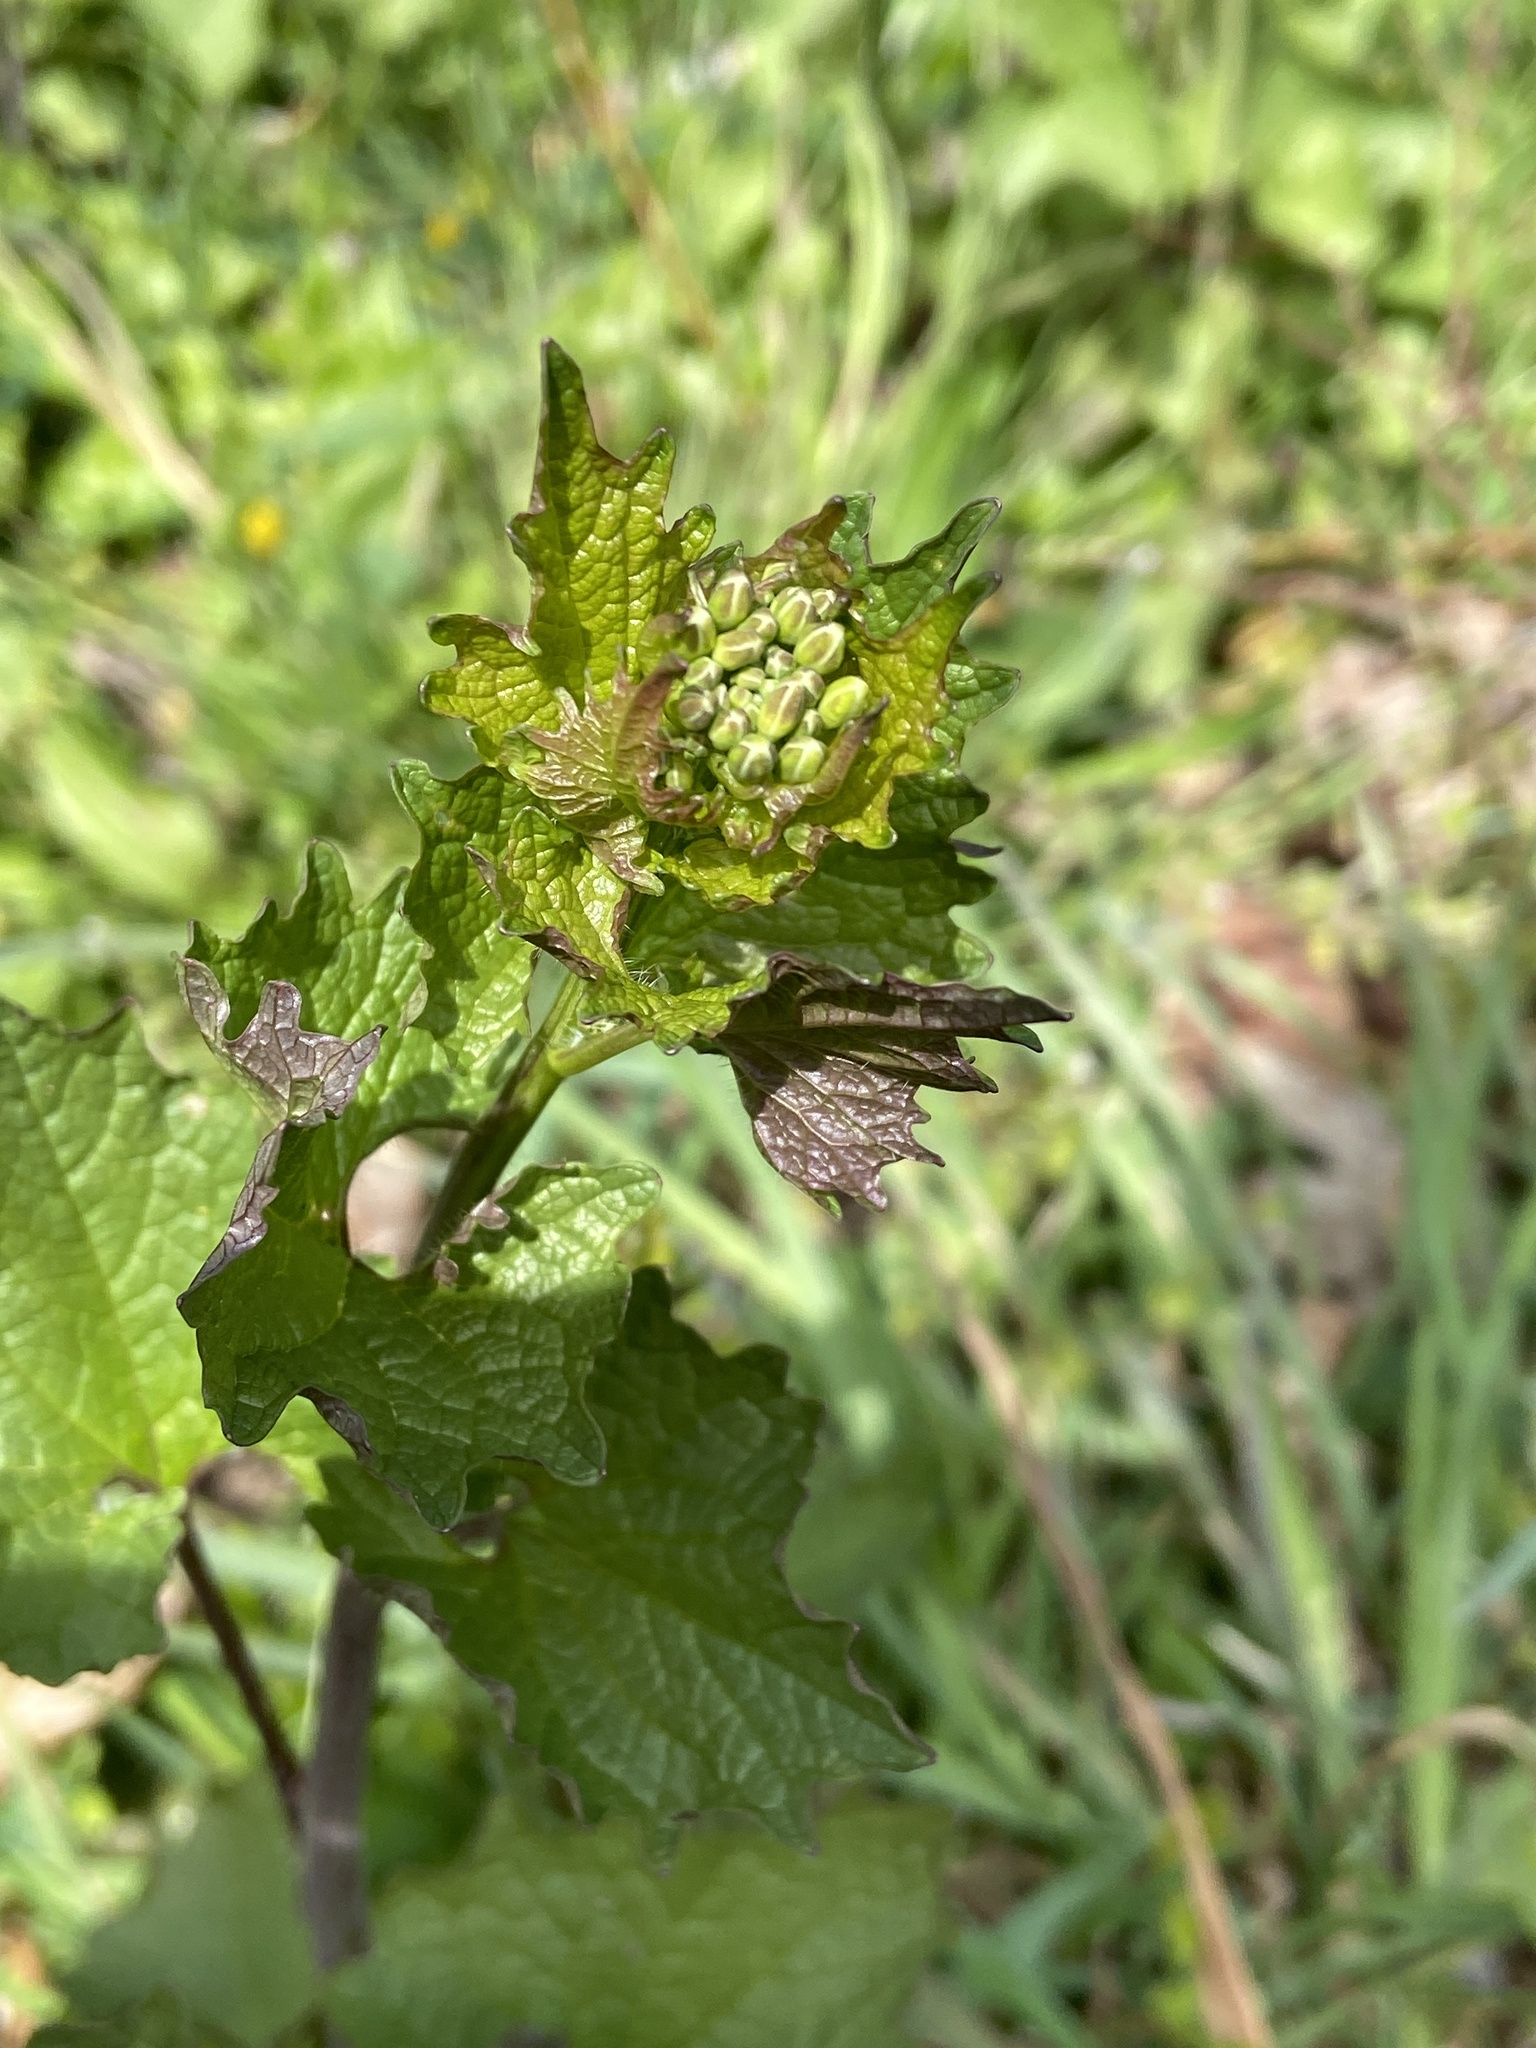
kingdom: Plantae
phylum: Tracheophyta
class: Magnoliopsida
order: Brassicales
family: Brassicaceae
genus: Alliaria
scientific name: Alliaria petiolata
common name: Garlic mustard
